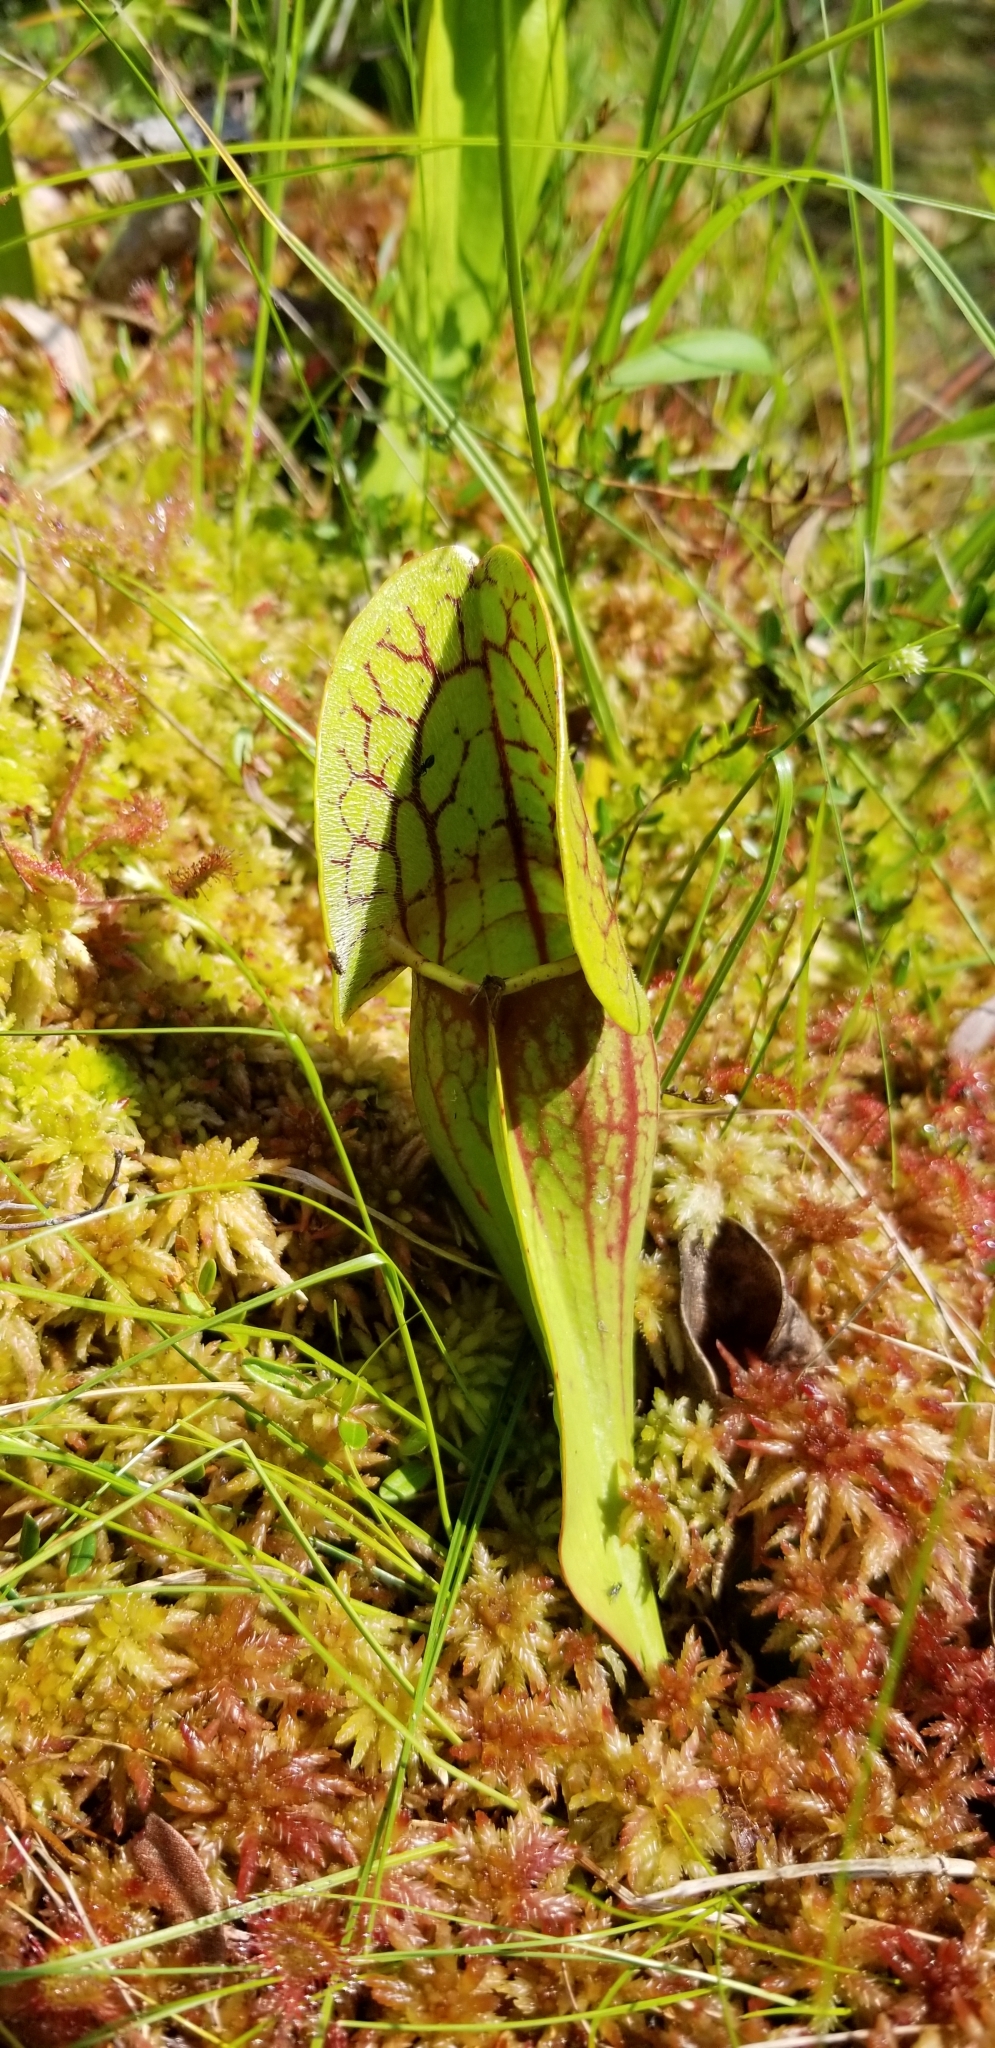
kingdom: Plantae
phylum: Tracheophyta
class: Magnoliopsida
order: Ericales
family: Sarraceniaceae
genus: Sarracenia
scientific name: Sarracenia purpurea
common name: Pitcherplant
